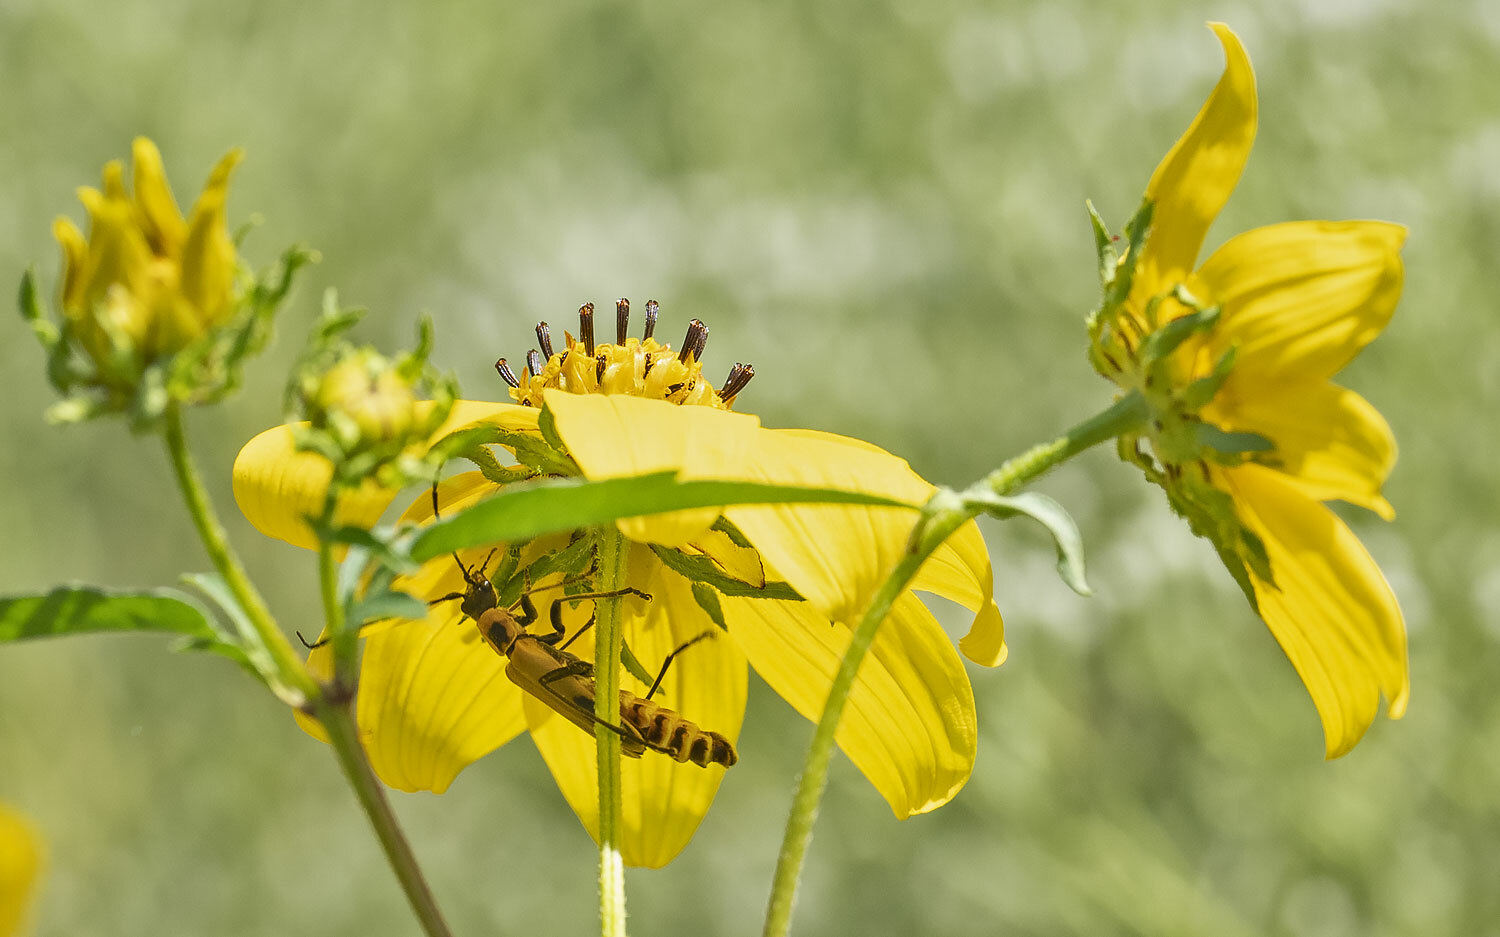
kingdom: Animalia
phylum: Arthropoda
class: Insecta
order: Coleoptera
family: Cantharidae
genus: Chauliognathus
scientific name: Chauliognathus pensylvanicus
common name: Goldenrod soldier beetle
